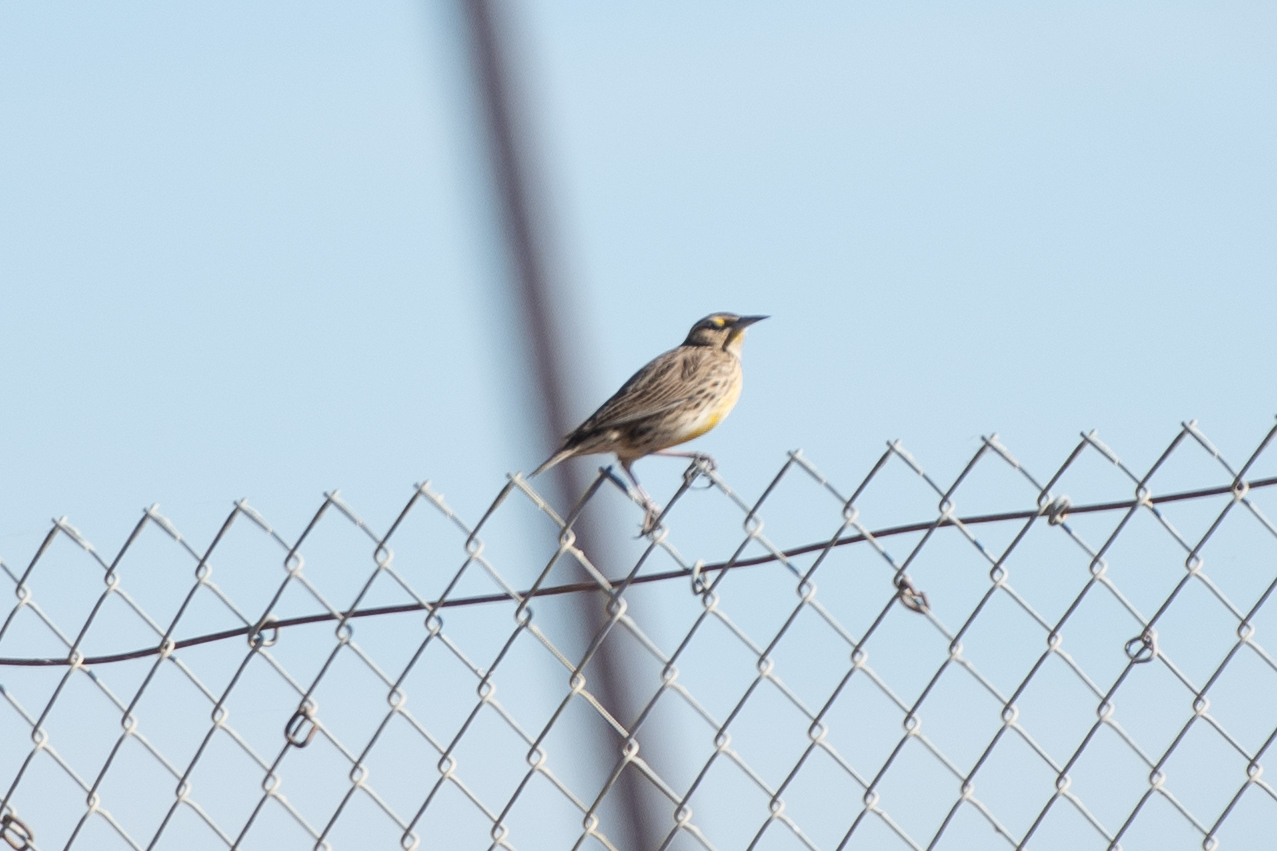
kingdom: Animalia
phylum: Chordata
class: Aves
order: Passeriformes
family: Icteridae
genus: Sturnella
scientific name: Sturnella neglecta
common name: Western meadowlark
